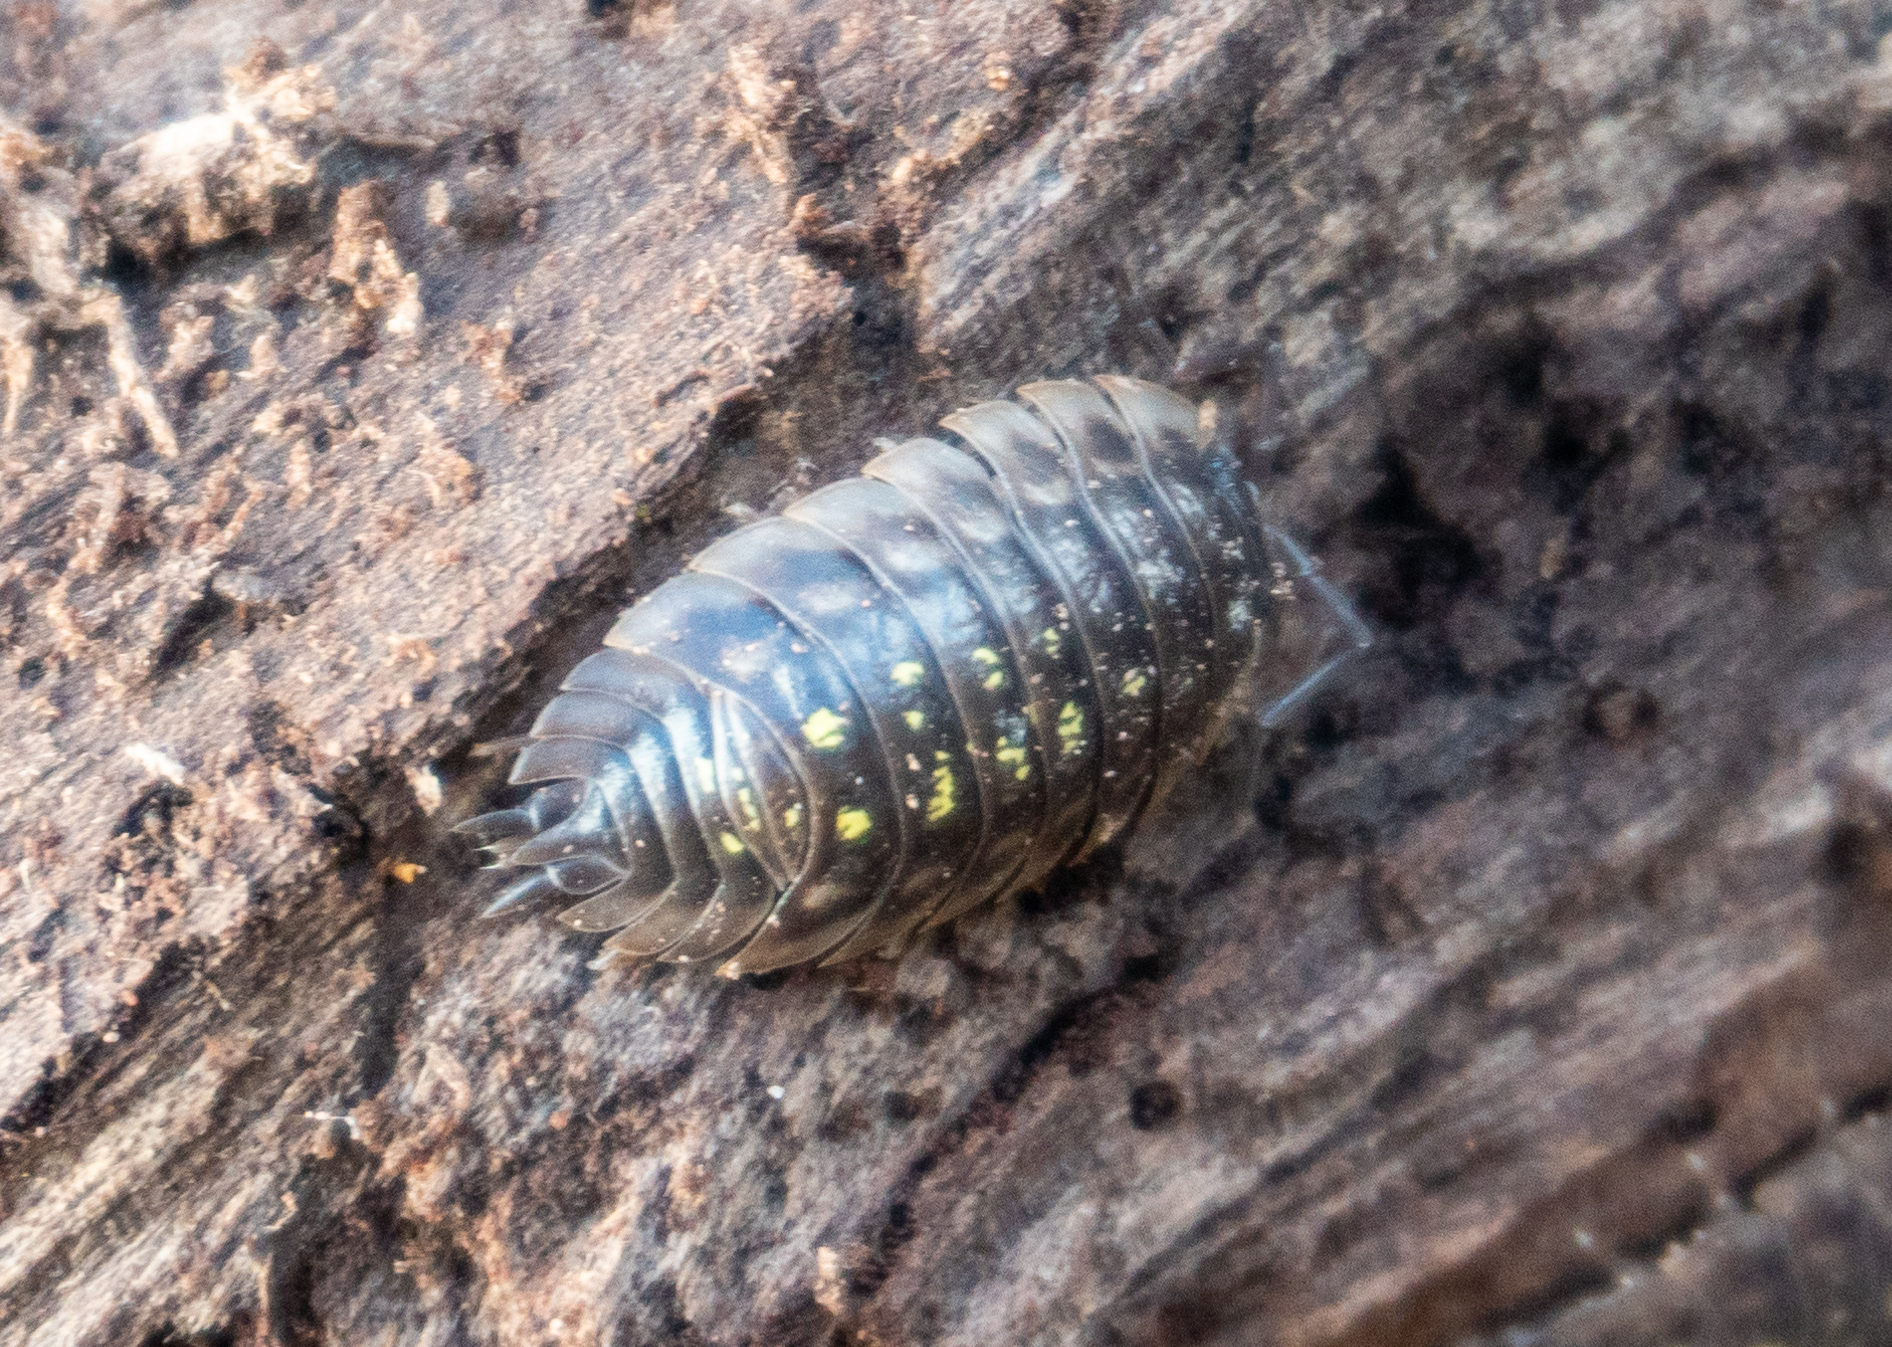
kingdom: Animalia
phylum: Arthropoda
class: Malacostraca
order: Isopoda
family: Oniscidae
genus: Oniscus
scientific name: Oniscus asellus
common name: Common shiny woodlouse
